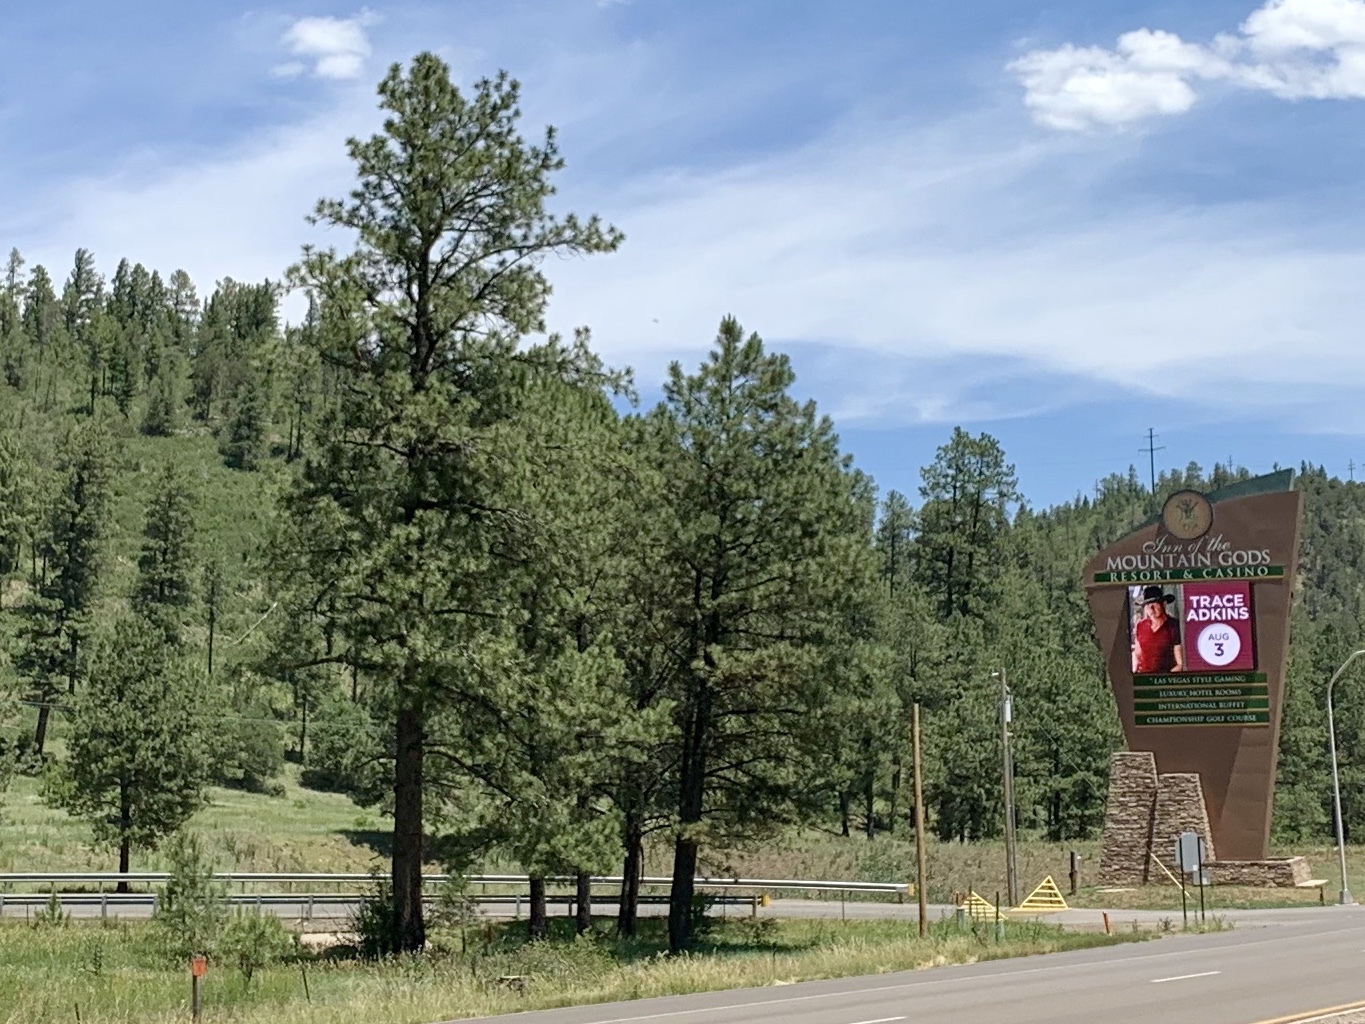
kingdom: Plantae
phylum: Tracheophyta
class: Pinopsida
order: Pinales
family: Pinaceae
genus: Pinus
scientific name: Pinus ponderosa
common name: Western yellow-pine
